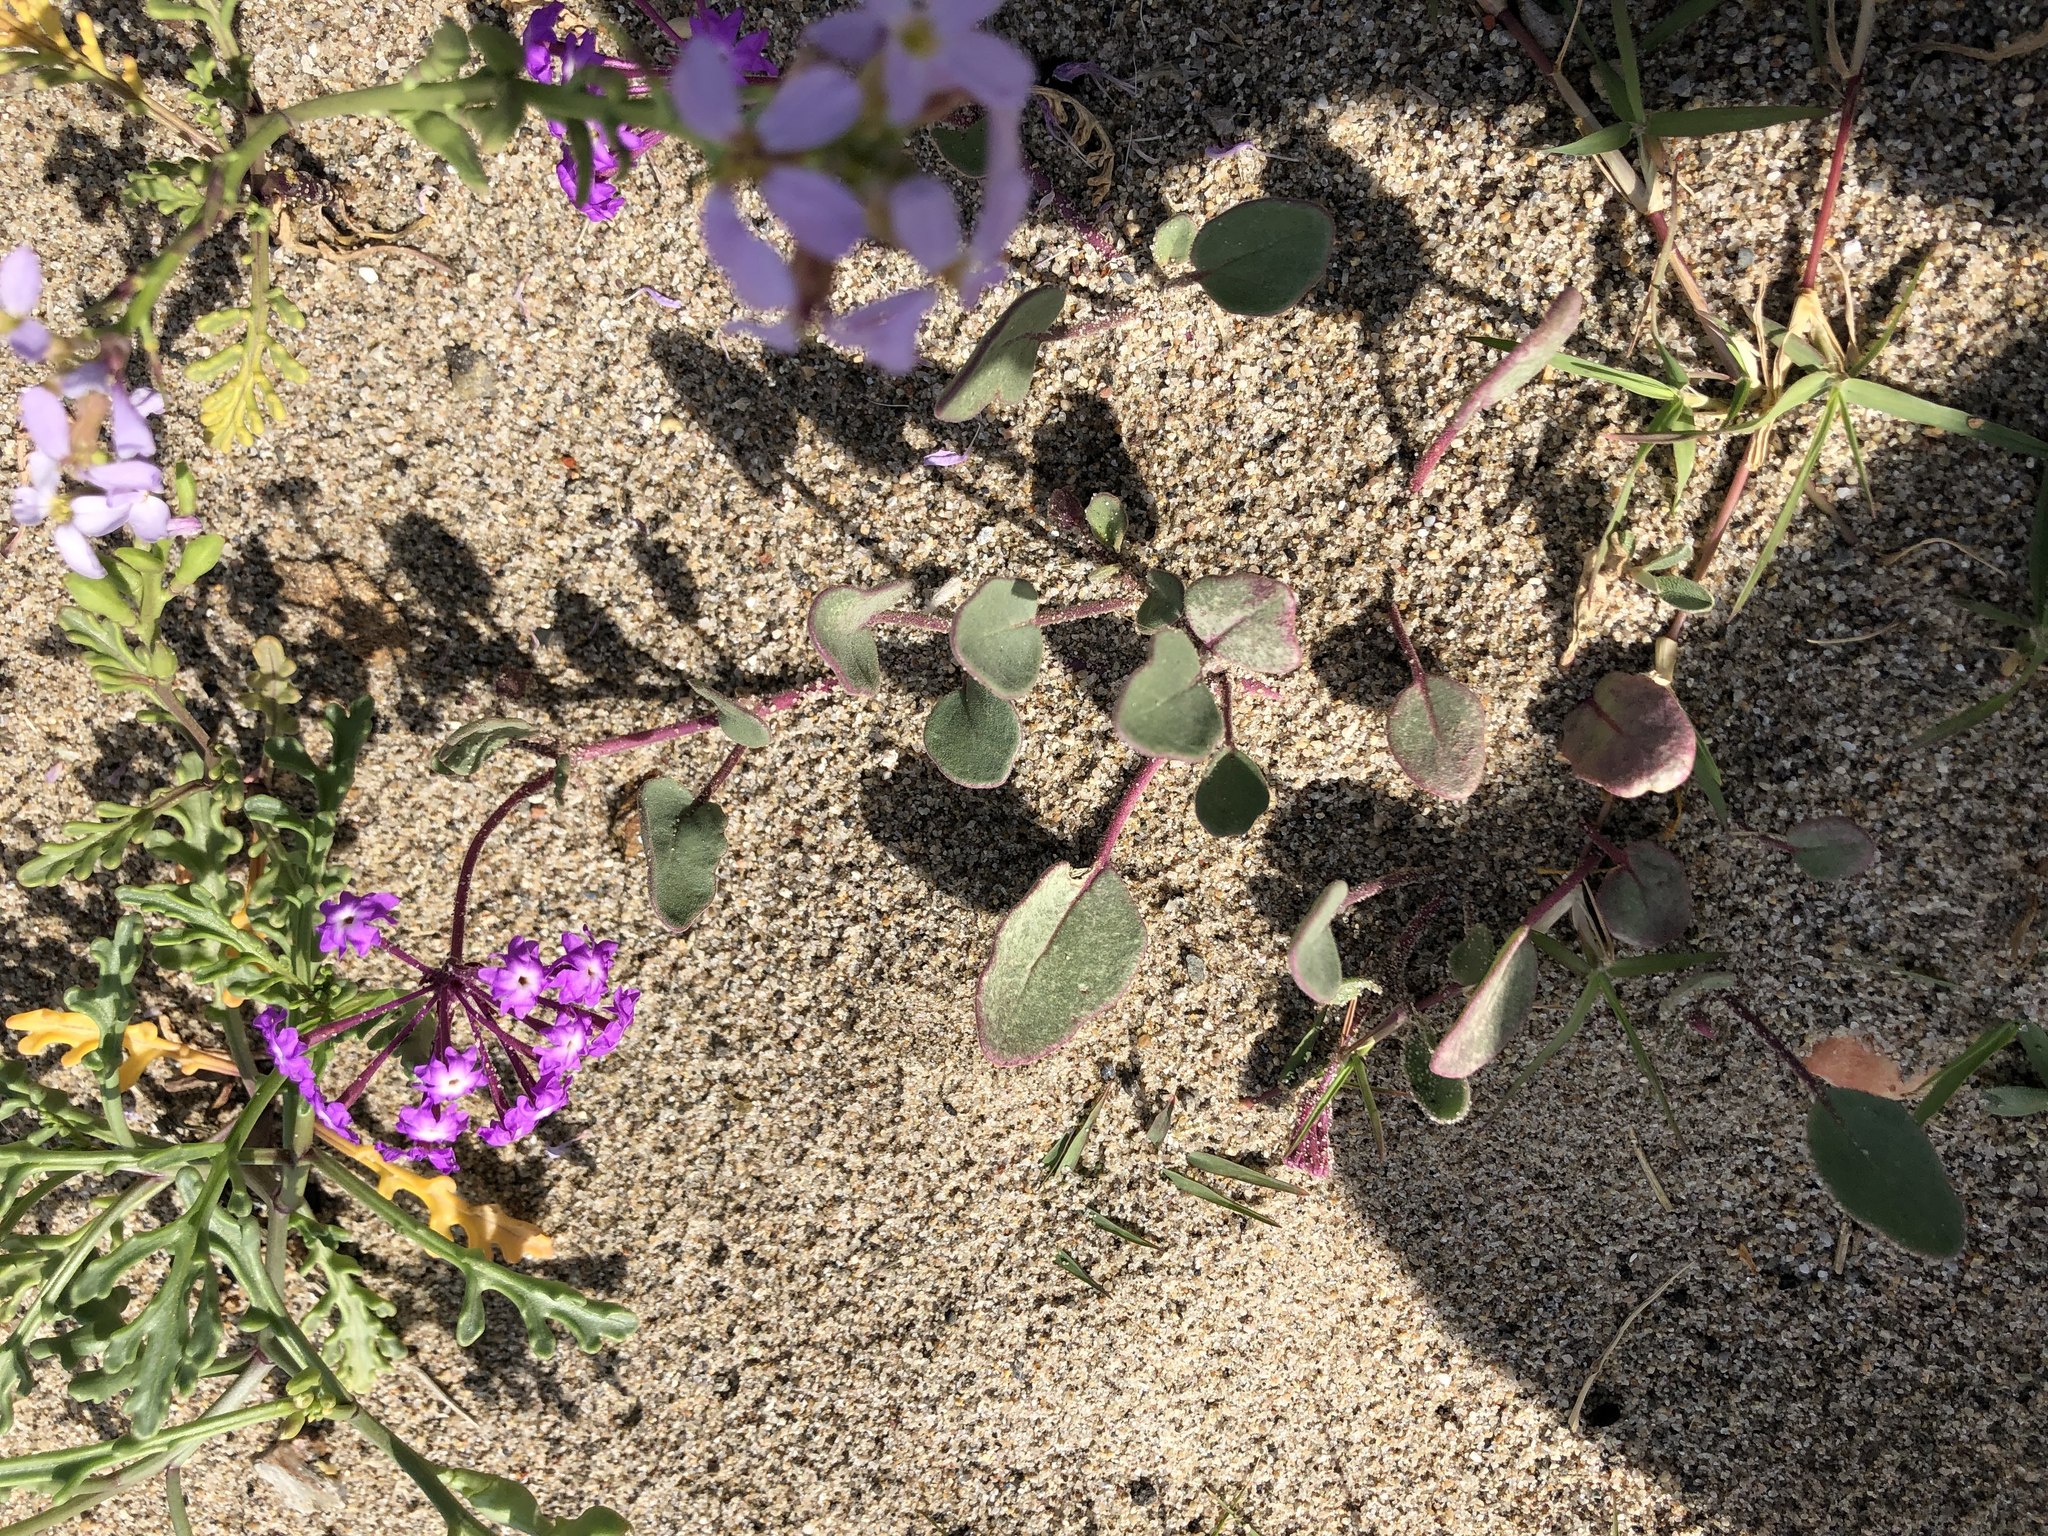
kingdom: Plantae
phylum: Tracheophyta
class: Magnoliopsida
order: Caryophyllales
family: Nyctaginaceae
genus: Abronia
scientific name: Abronia umbellata
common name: Sand-verbena
